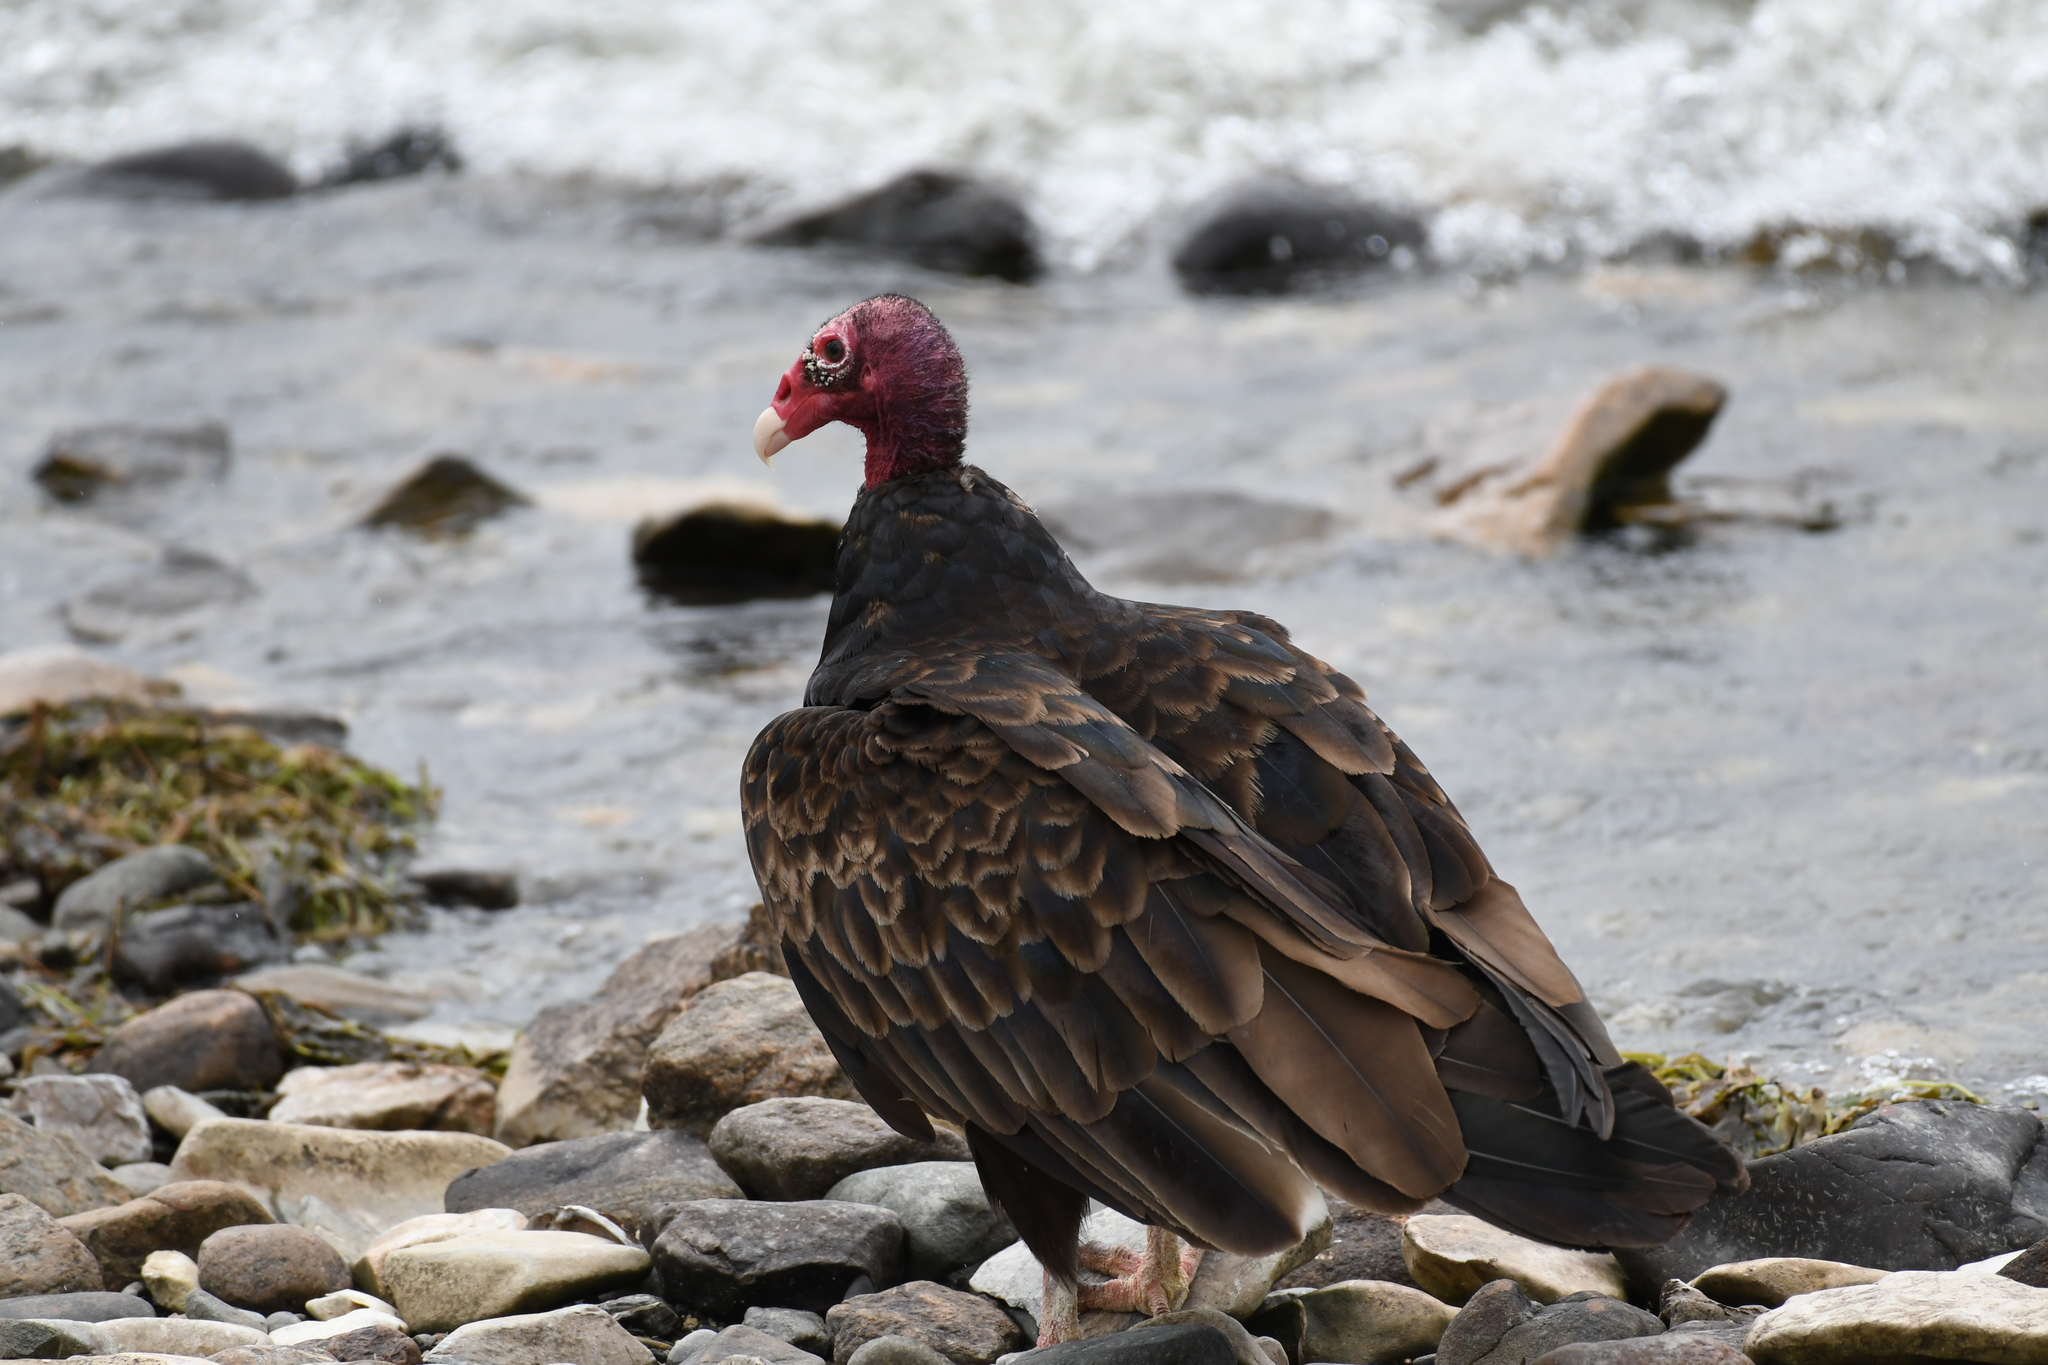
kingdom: Animalia
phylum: Chordata
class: Aves
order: Accipitriformes
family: Cathartidae
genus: Cathartes
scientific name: Cathartes aura
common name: Turkey vulture
